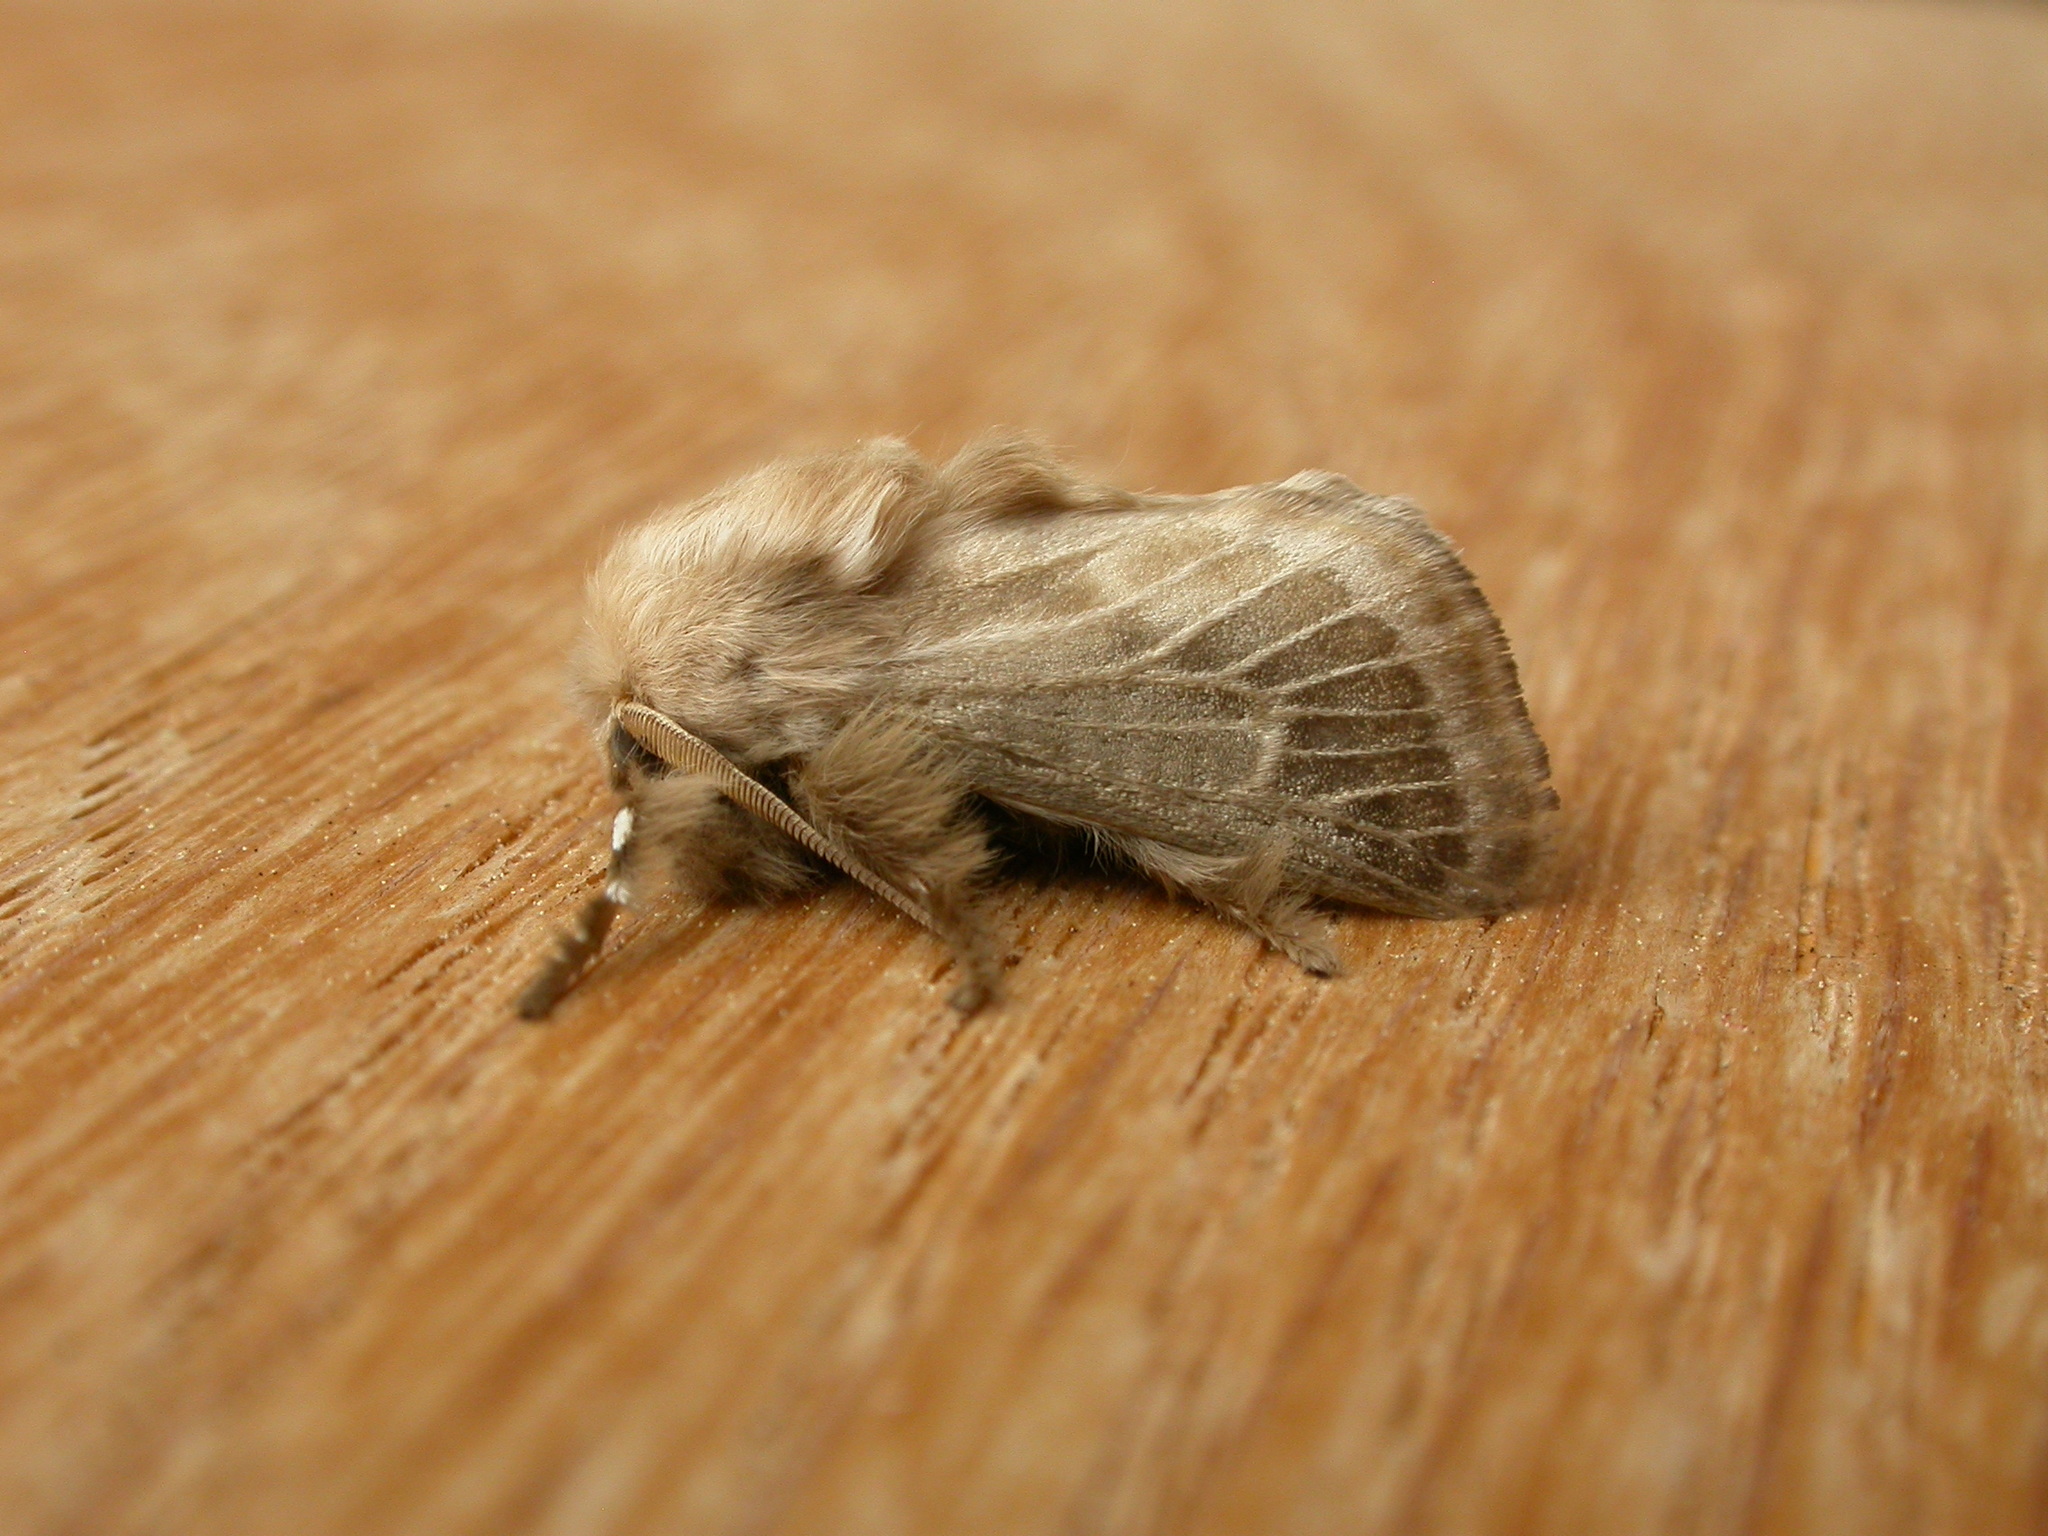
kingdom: Animalia
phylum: Arthropoda
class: Insecta
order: Lepidoptera
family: Limacodidae
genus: Doratifera
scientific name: Doratifera pinguis
